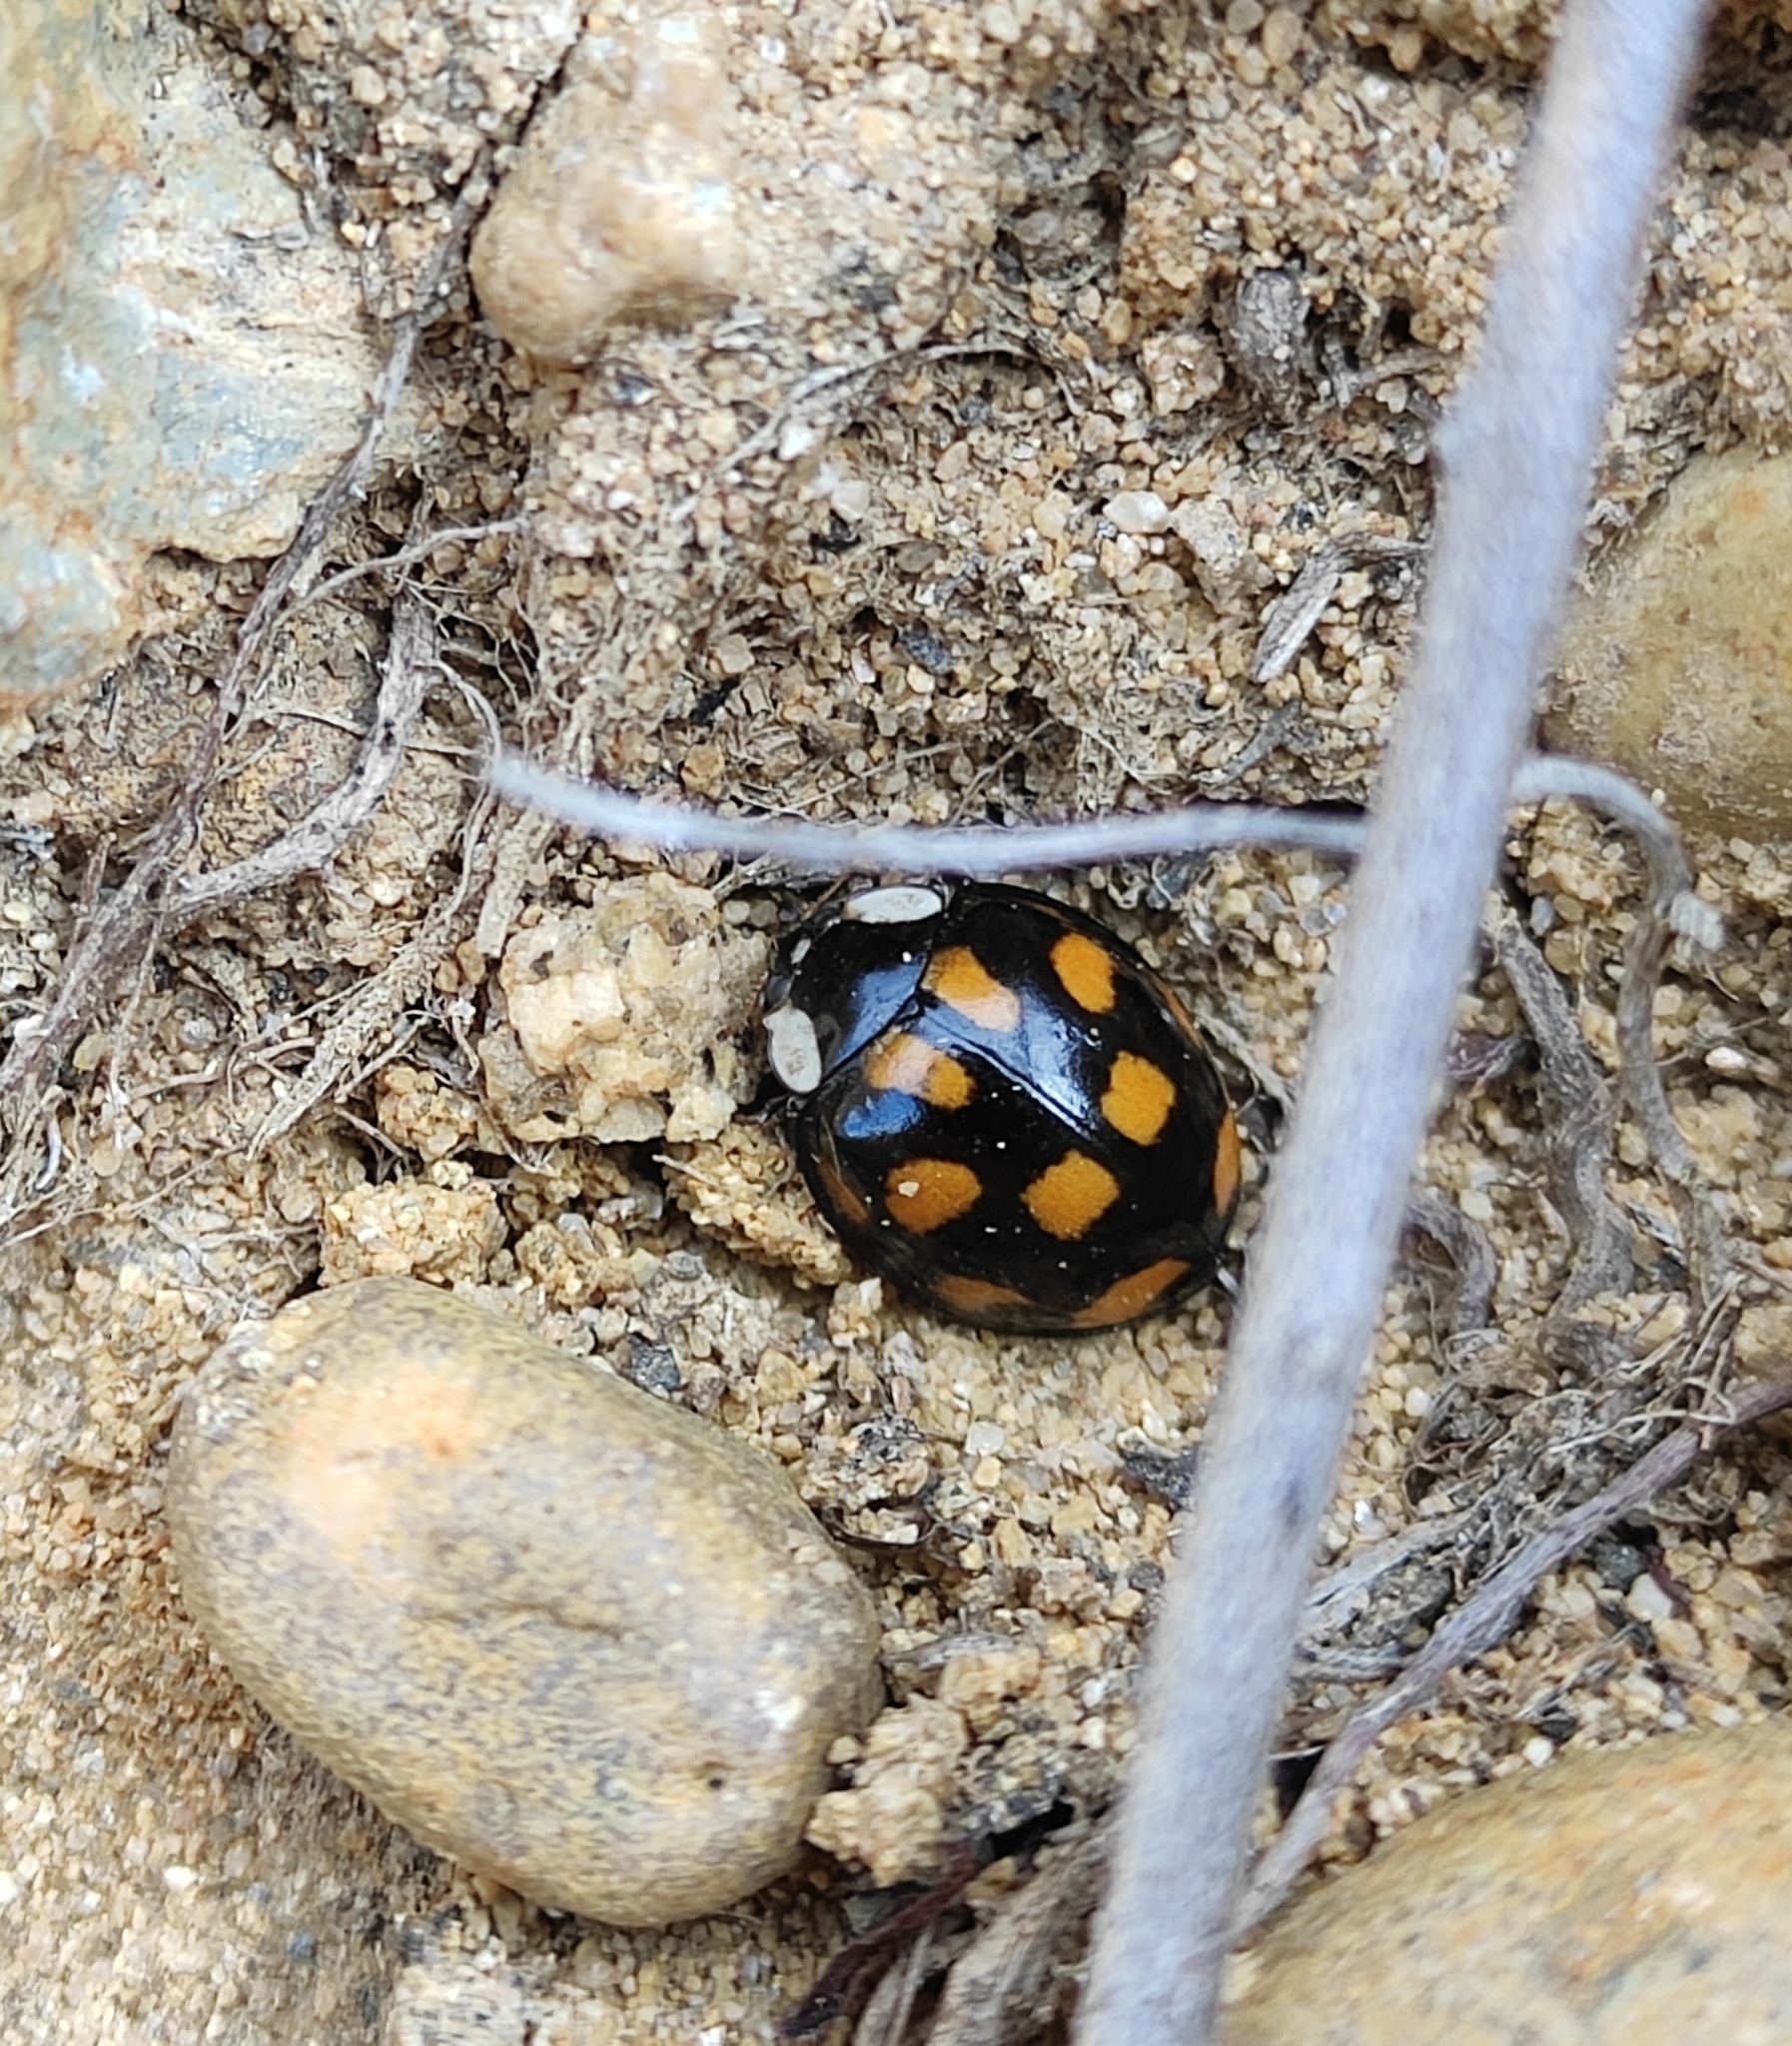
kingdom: Animalia
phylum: Arthropoda
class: Insecta
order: Coleoptera
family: Coccinellidae
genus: Harmonia
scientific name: Harmonia axyridis
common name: Harlequin ladybird
